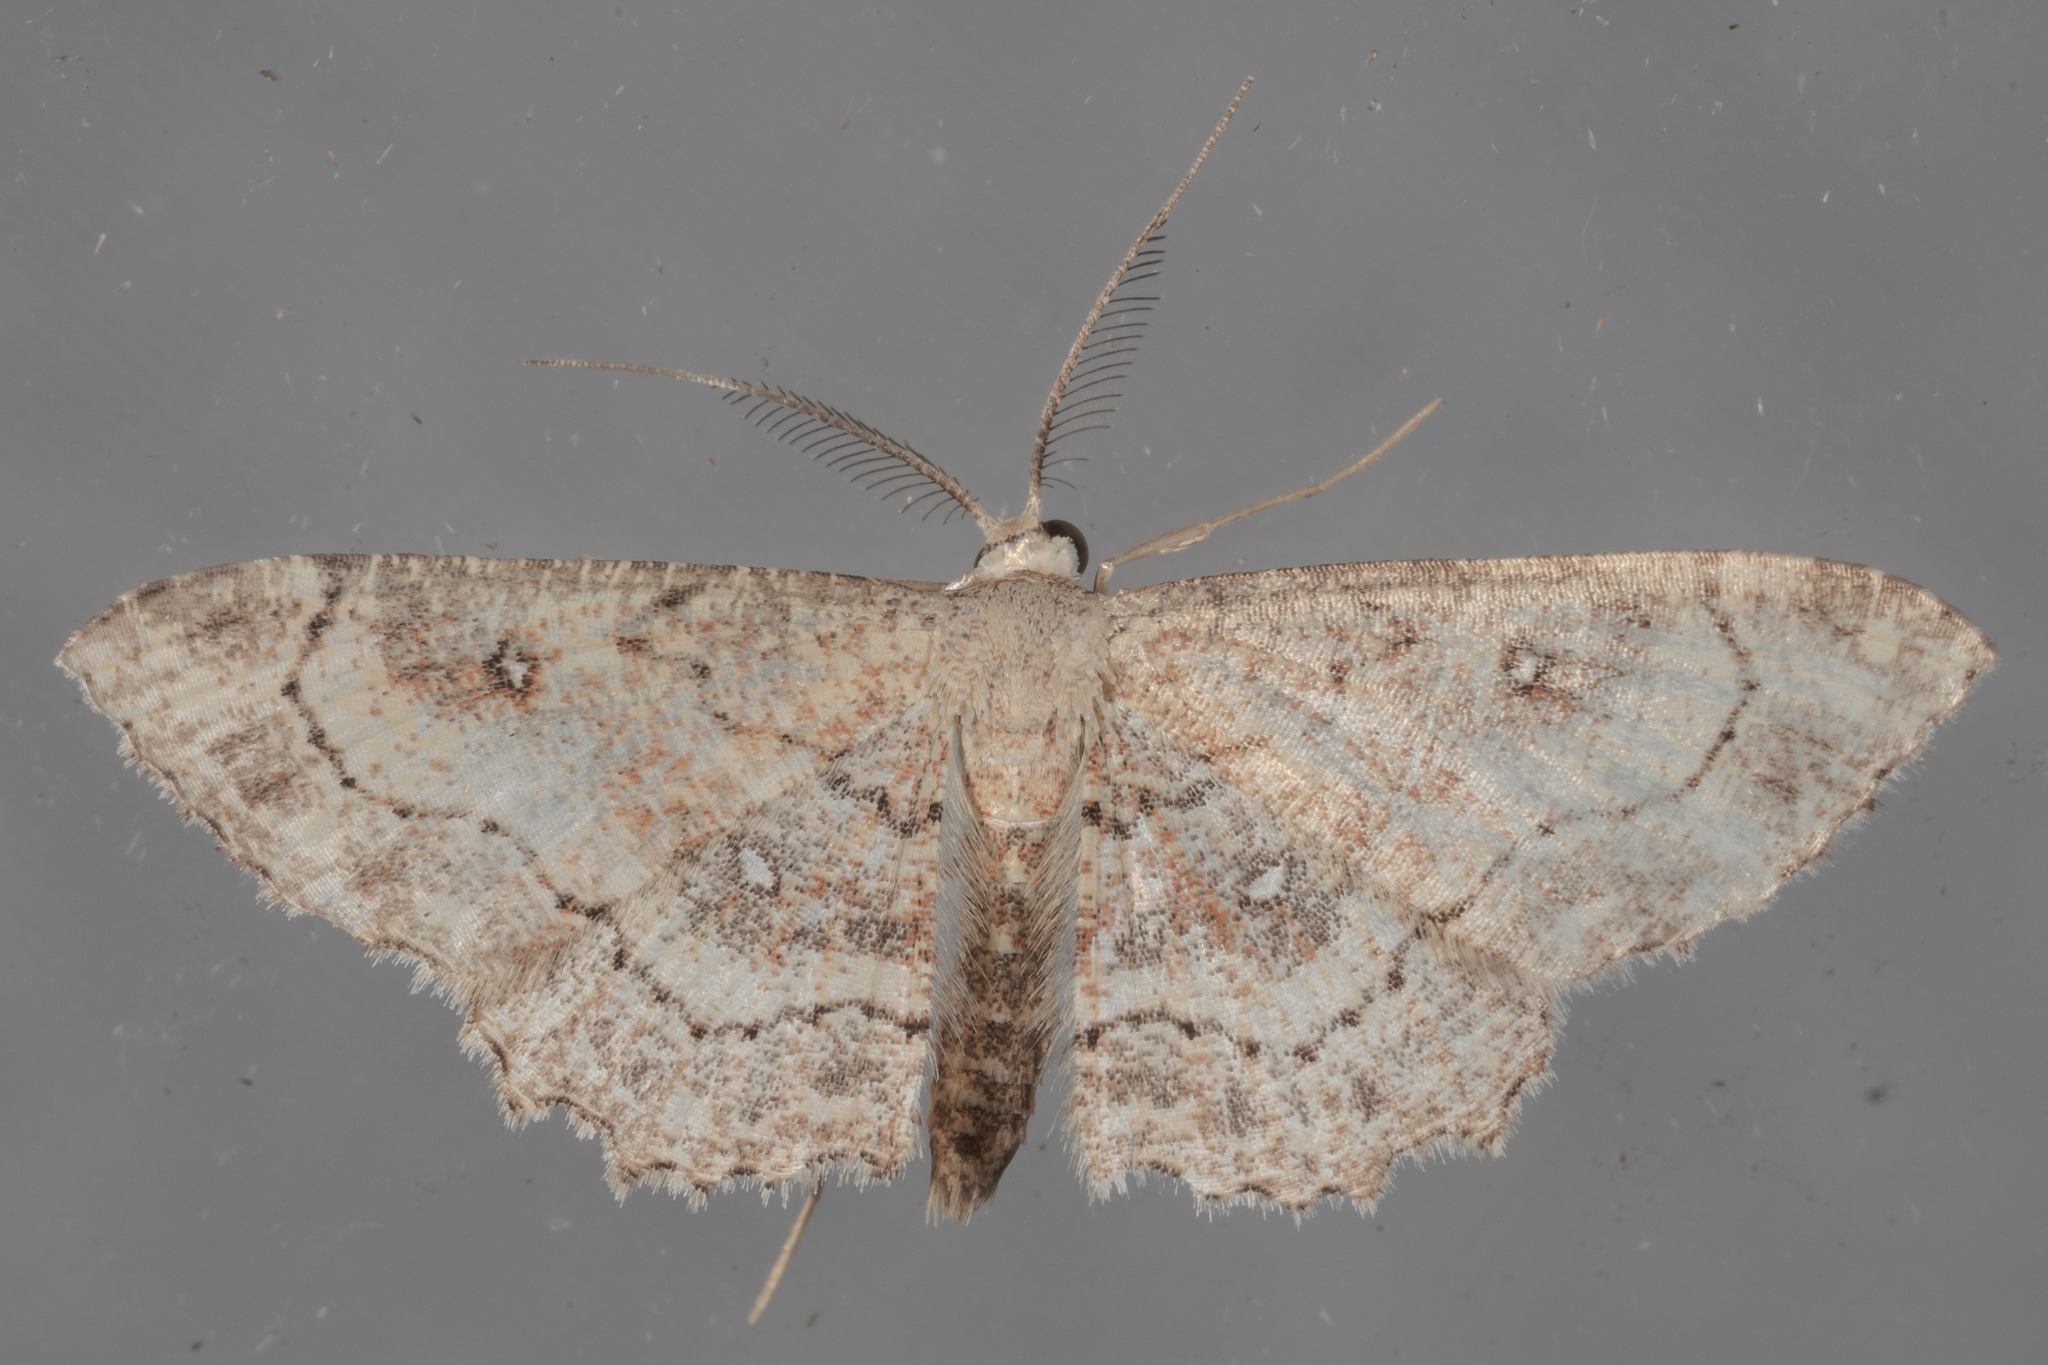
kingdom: Animalia
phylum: Arthropoda
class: Insecta
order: Lepidoptera
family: Geometridae
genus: Cyclophora
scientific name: Cyclophora nanaria
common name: Cankerworm
